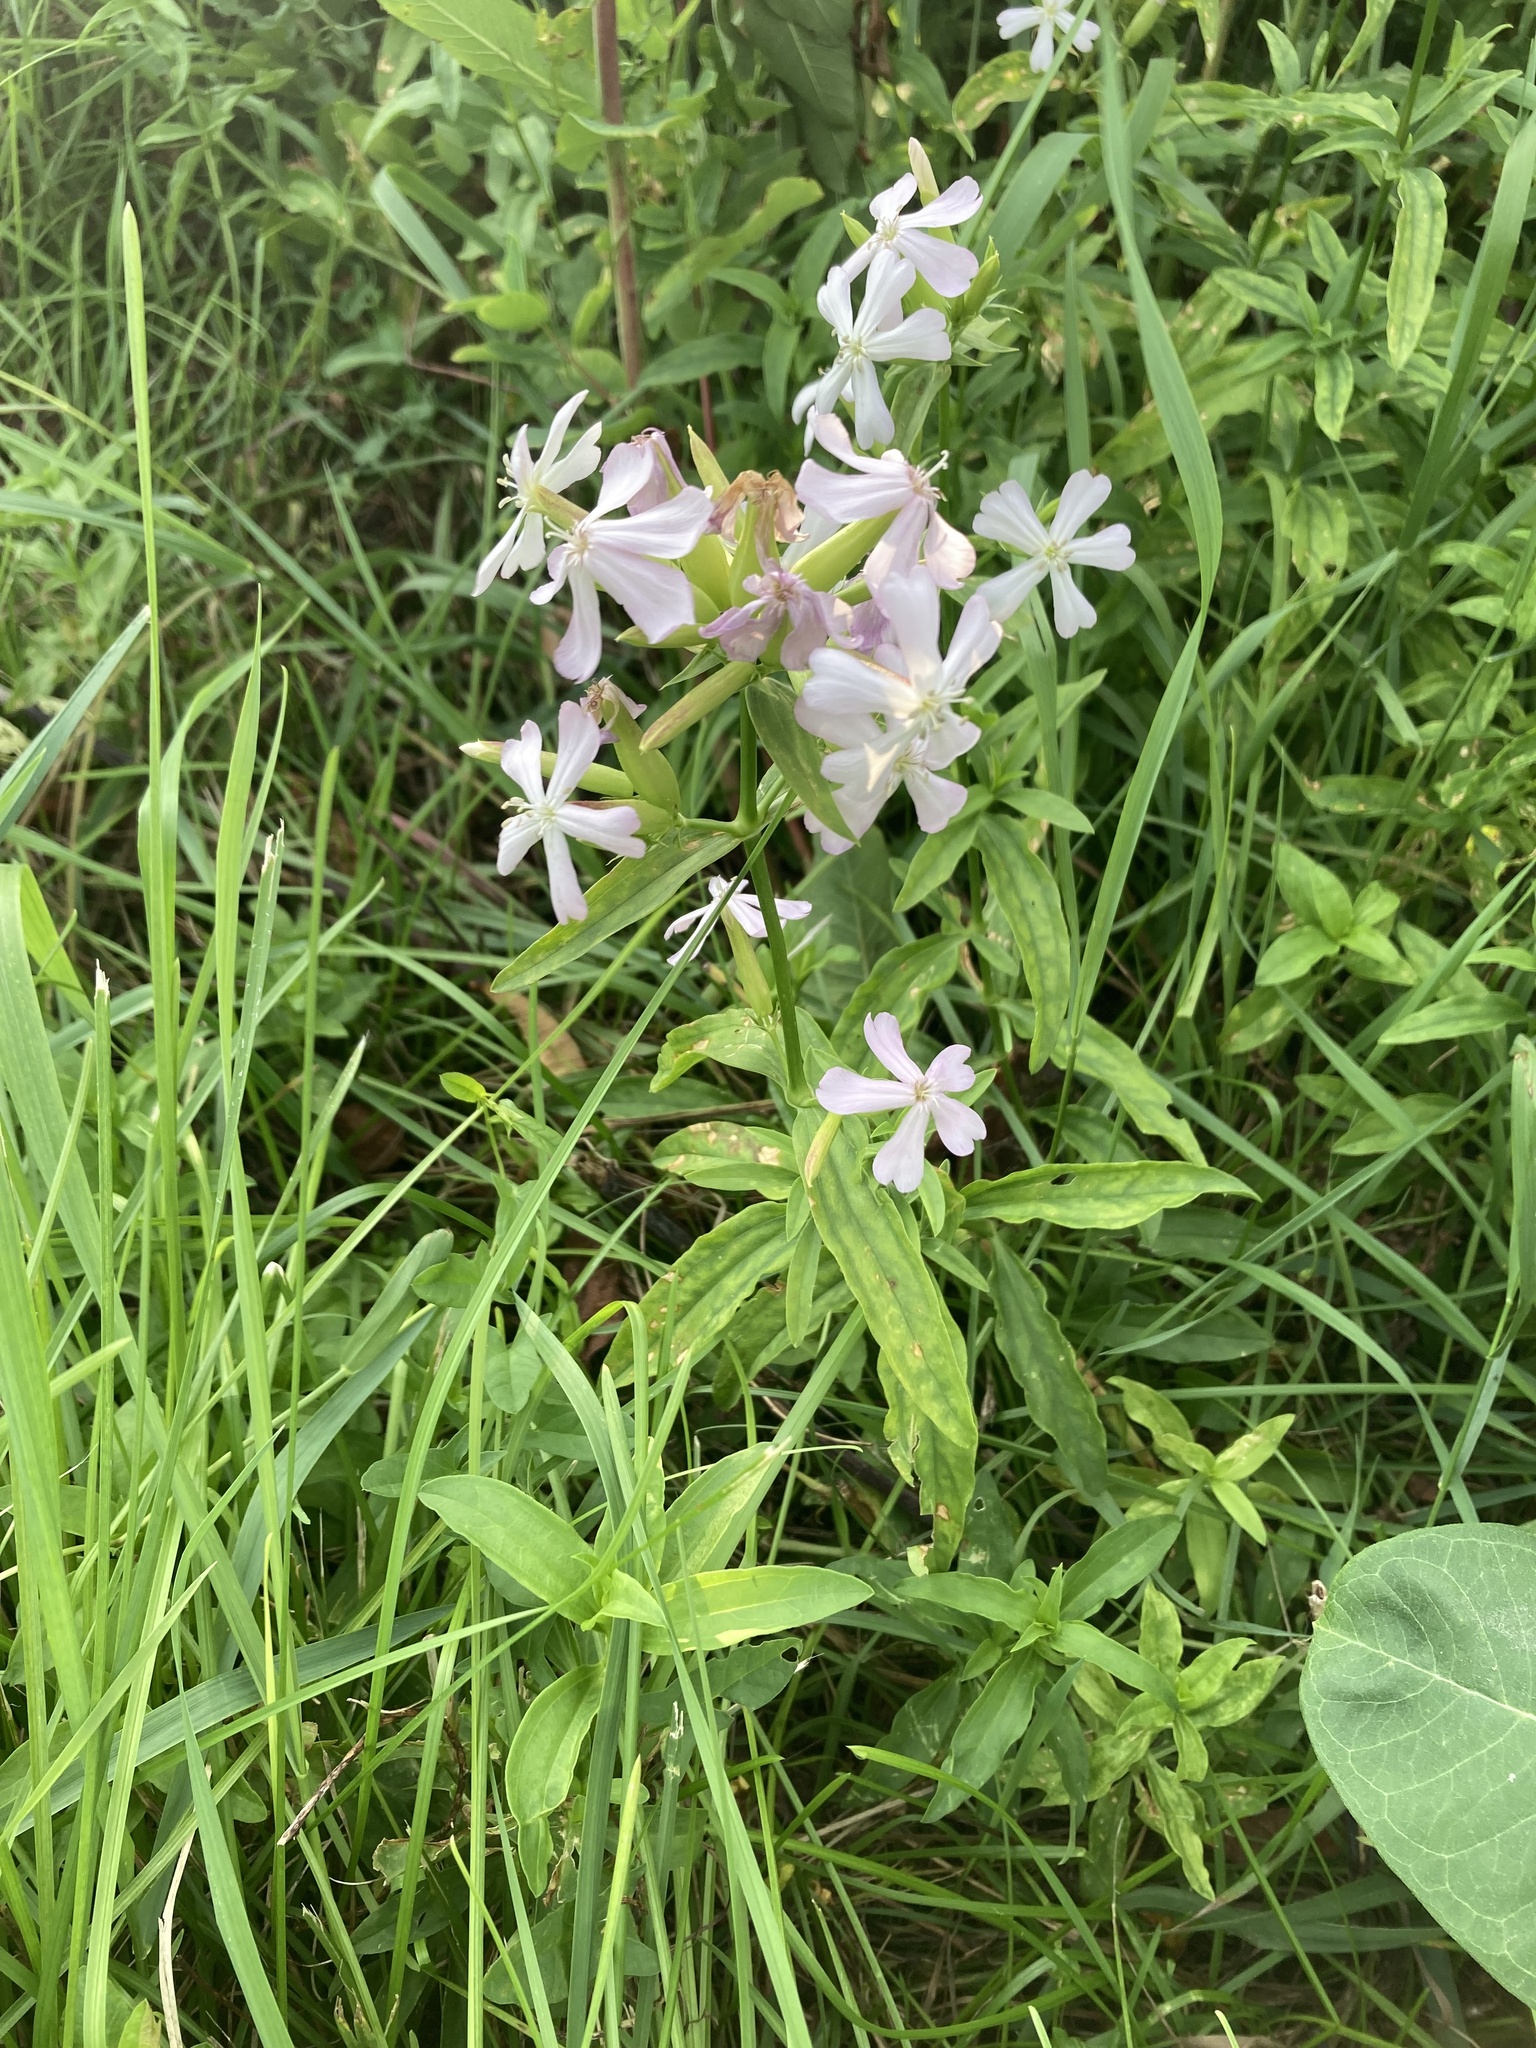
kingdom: Plantae
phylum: Tracheophyta
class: Magnoliopsida
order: Caryophyllales
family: Caryophyllaceae
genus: Saponaria
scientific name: Saponaria officinalis
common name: Soapwort
